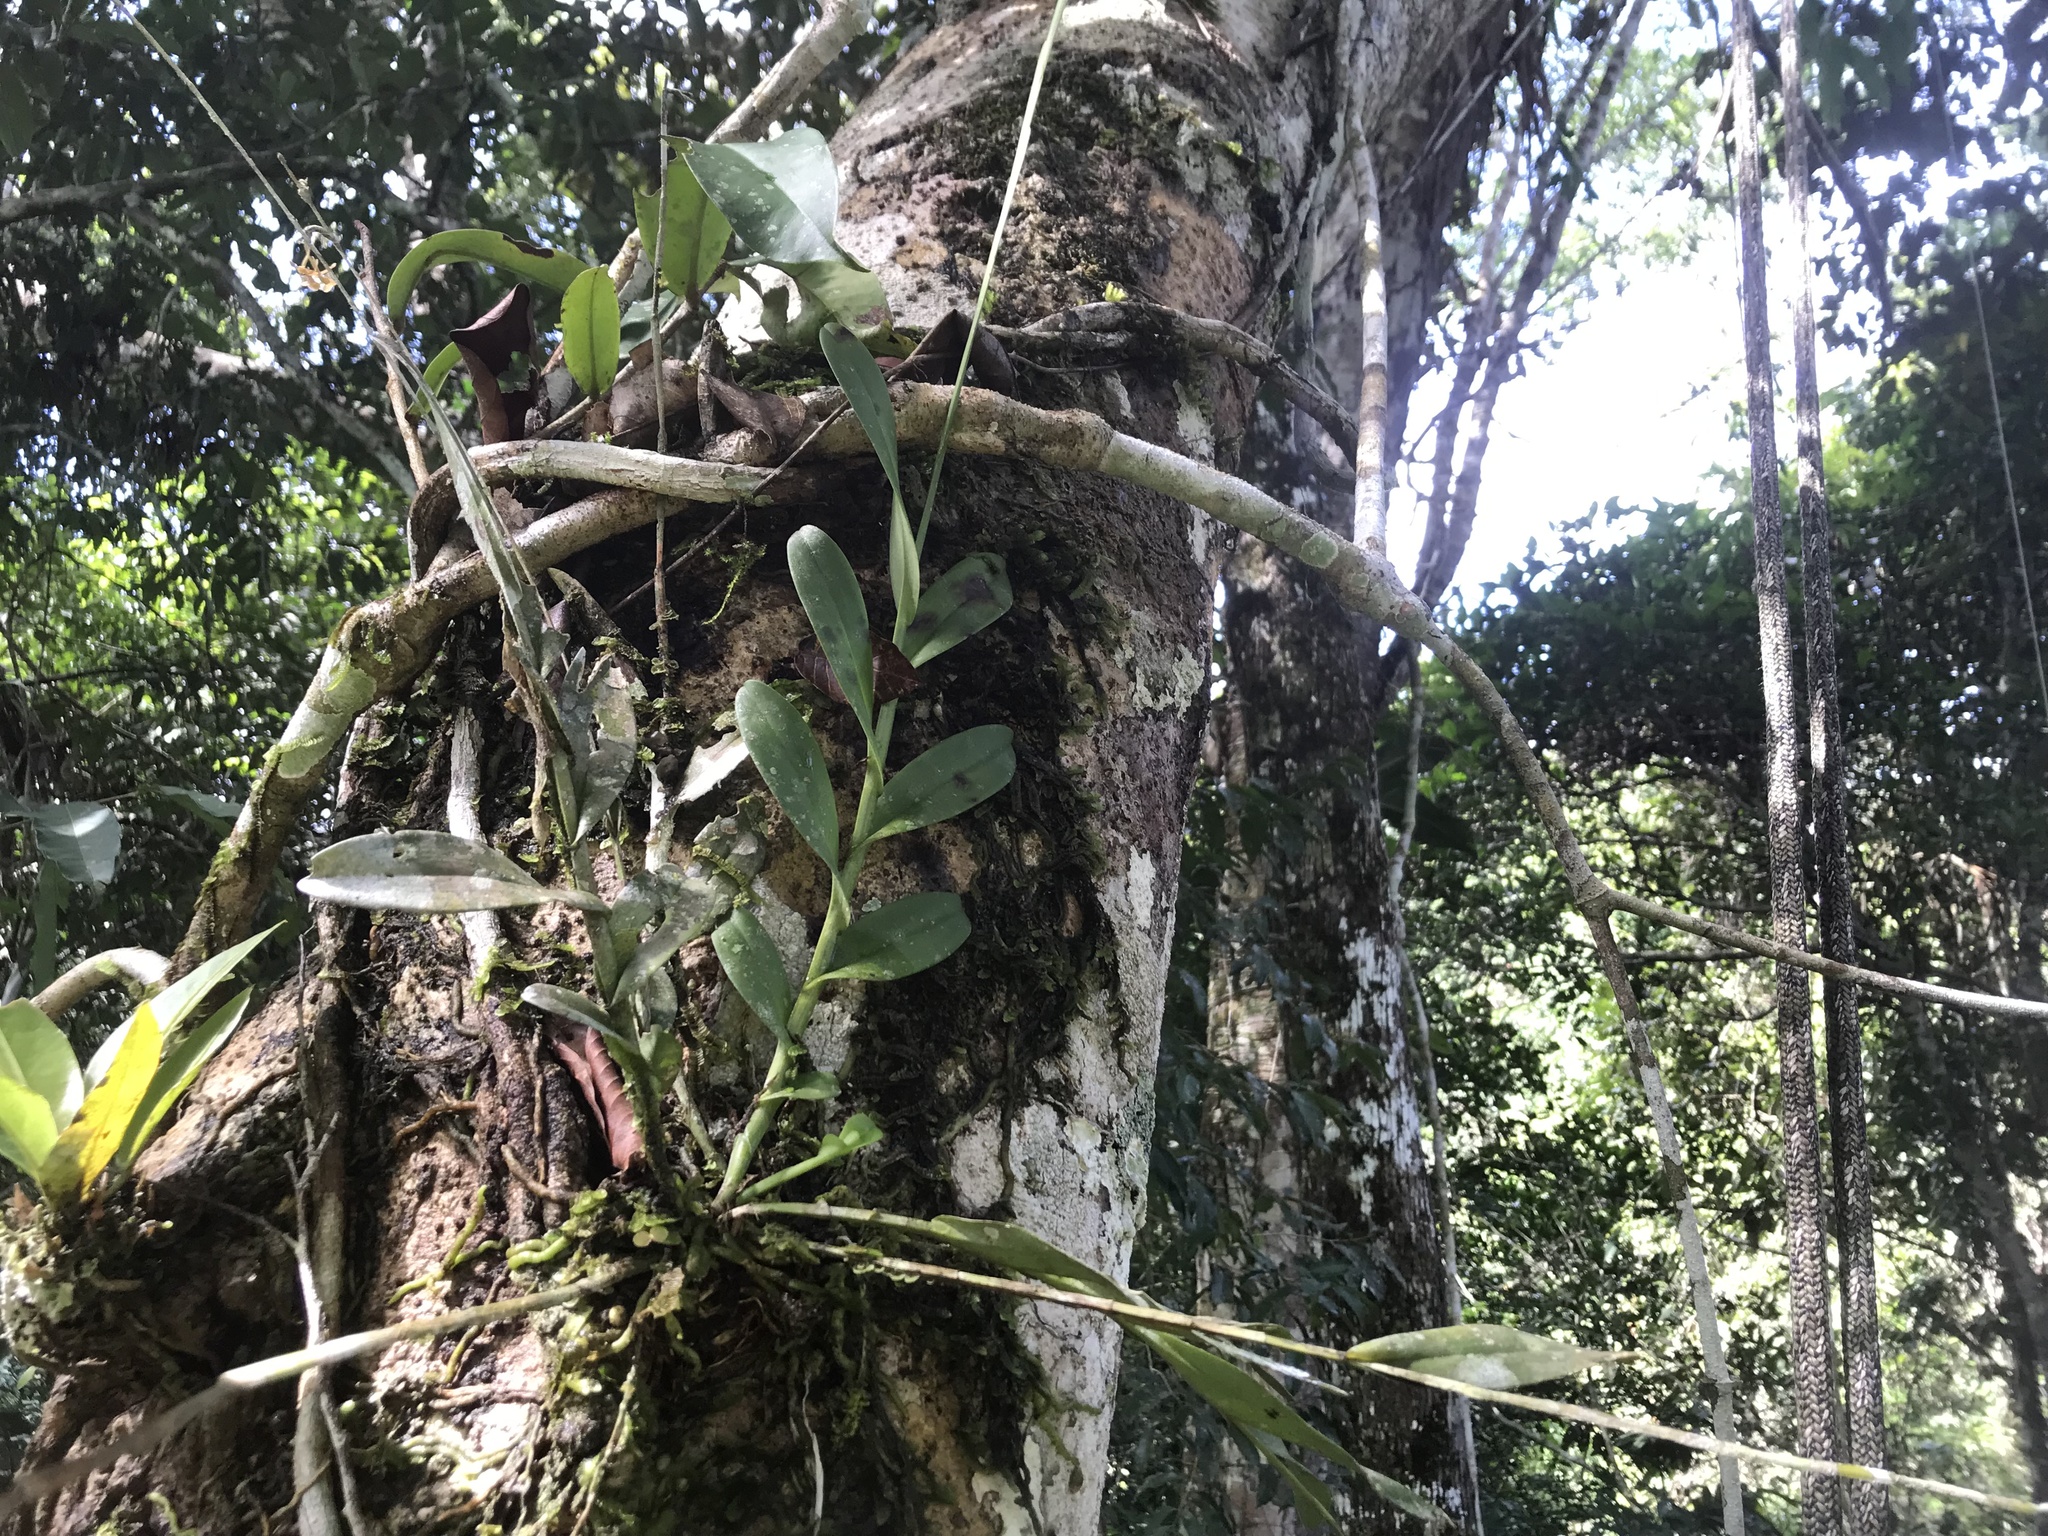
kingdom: Plantae
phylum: Tracheophyta
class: Liliopsida
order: Asparagales
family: Orchidaceae
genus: Epidendrum
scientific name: Epidendrum anceps
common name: Brown-flower butterfly orchid
